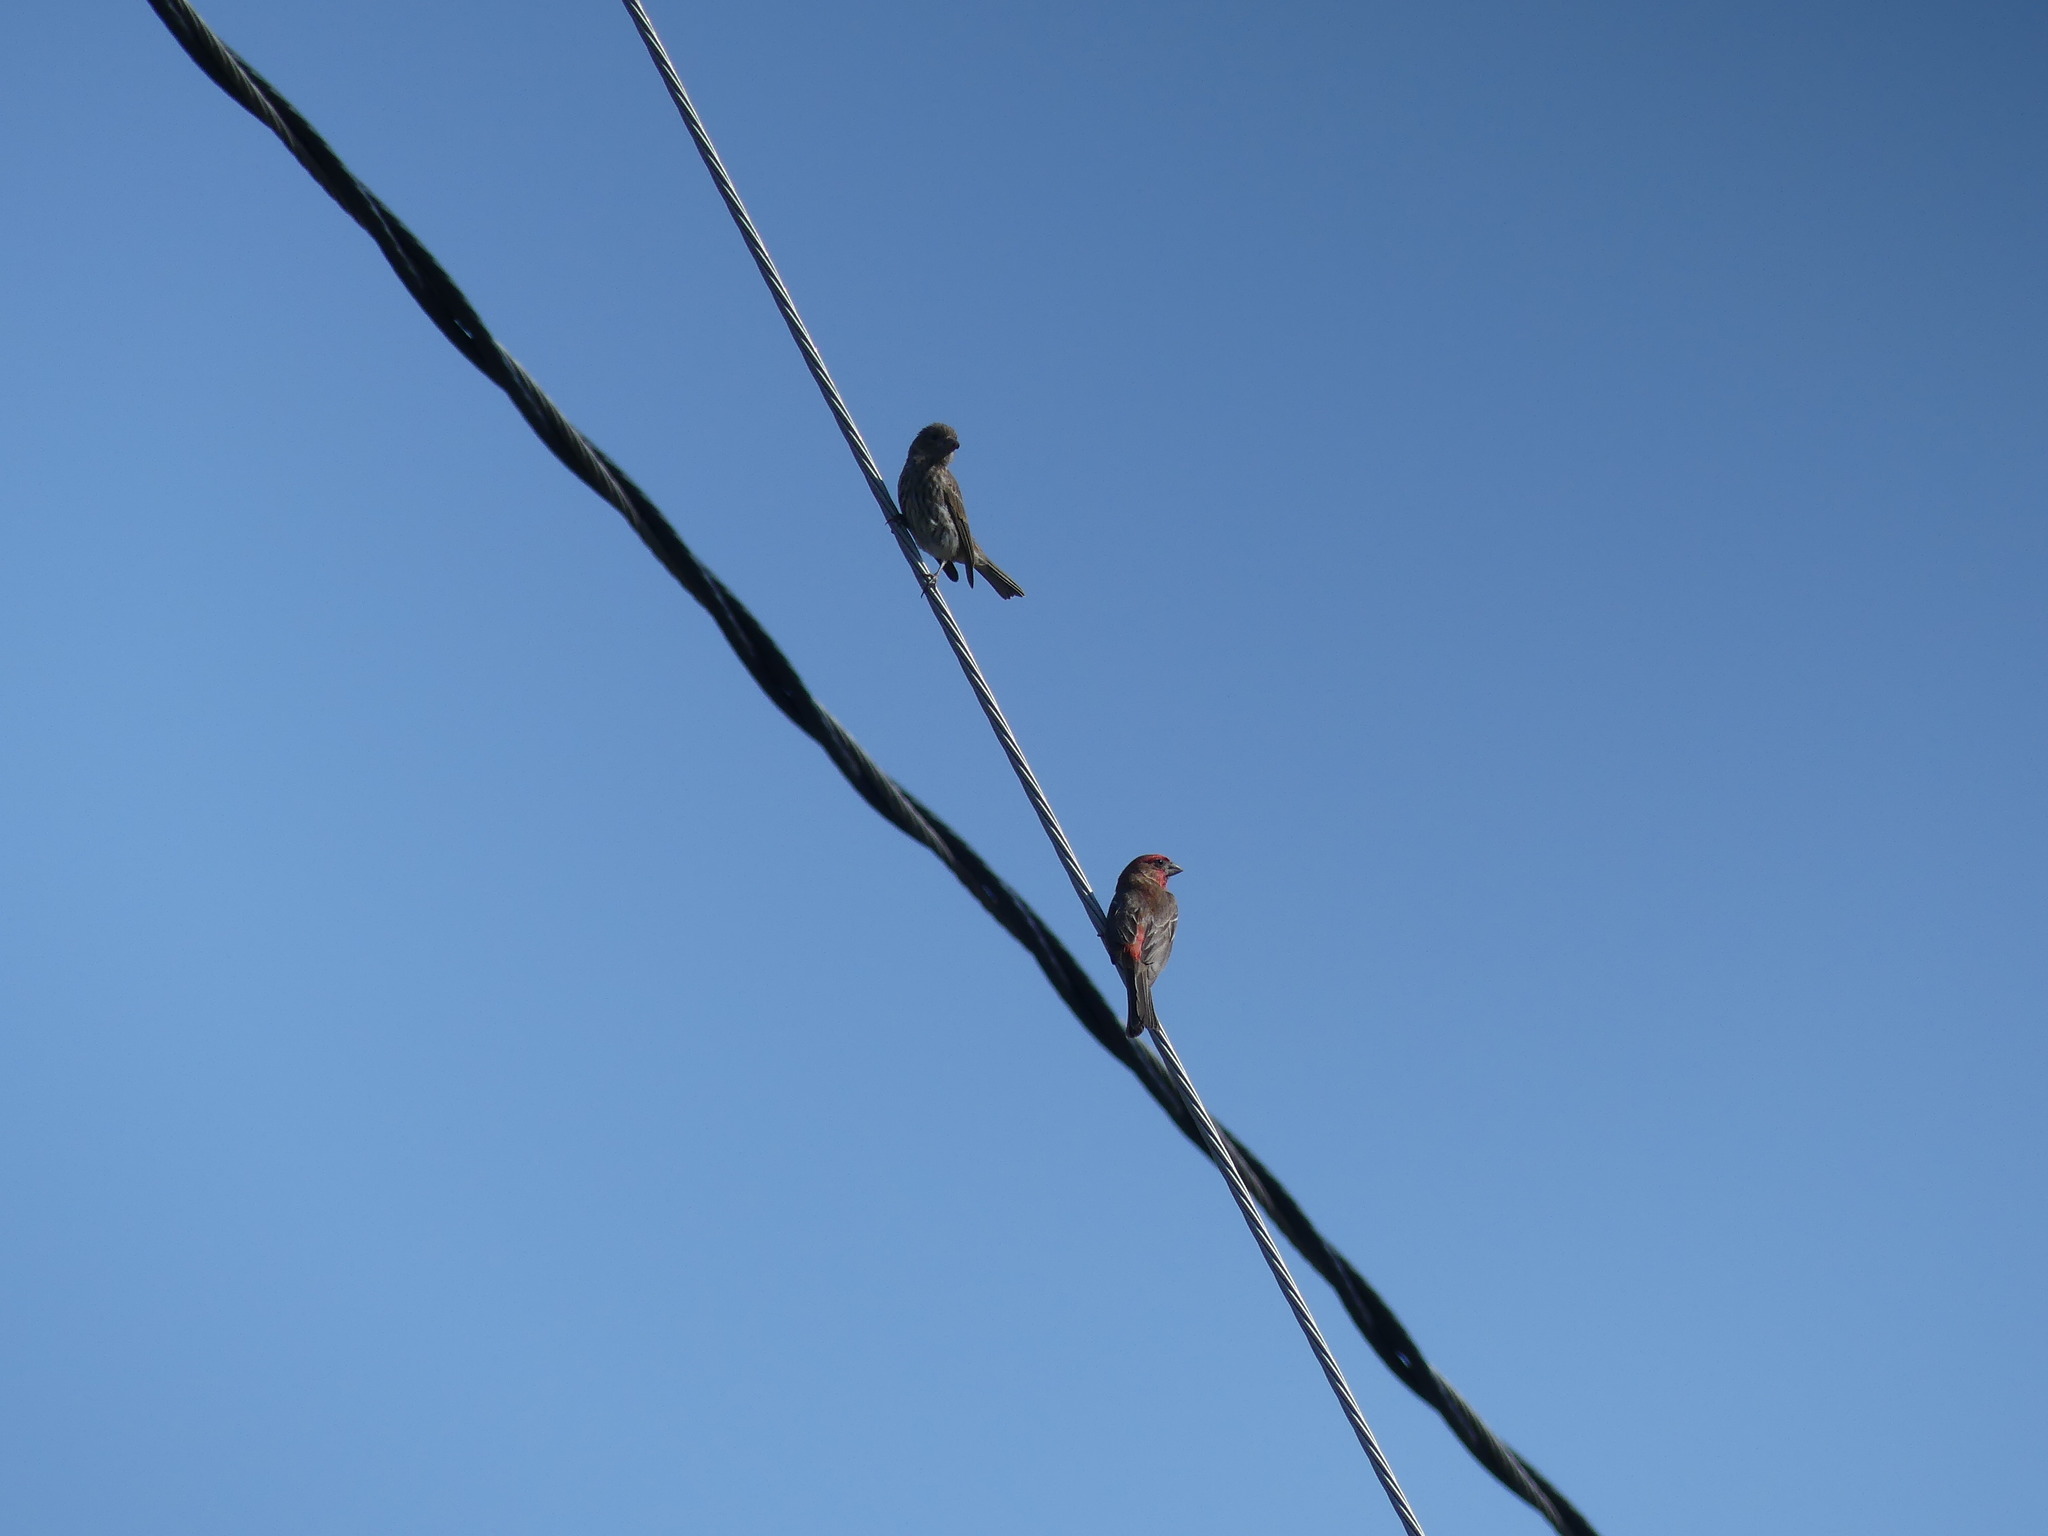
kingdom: Animalia
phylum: Chordata
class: Aves
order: Passeriformes
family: Fringillidae
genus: Haemorhous
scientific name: Haemorhous mexicanus
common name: House finch
